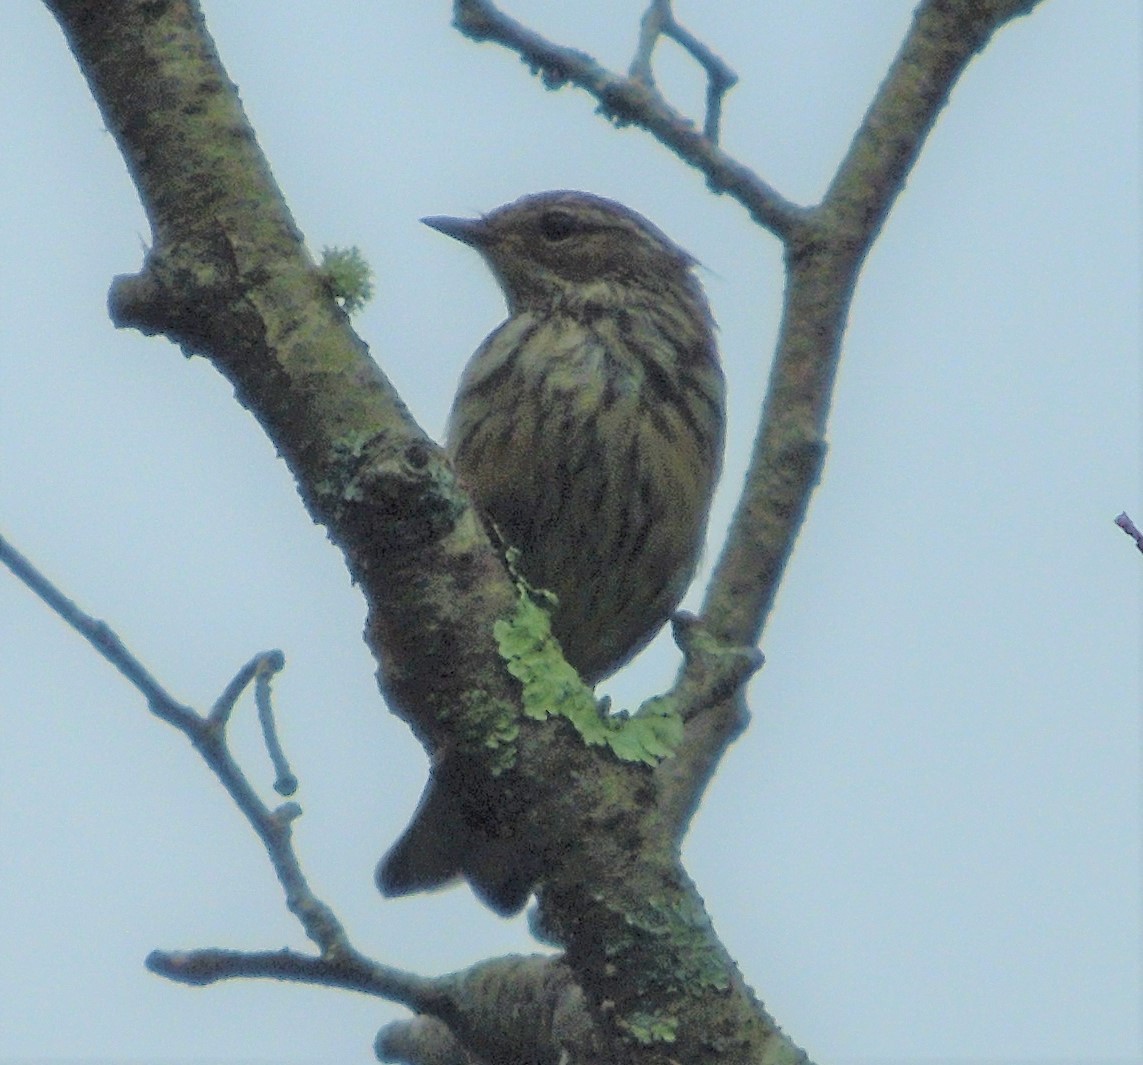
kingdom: Animalia
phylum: Chordata
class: Aves
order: Passeriformes
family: Parulidae
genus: Setophaga
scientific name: Setophaga coronata
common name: Myrtle warbler
